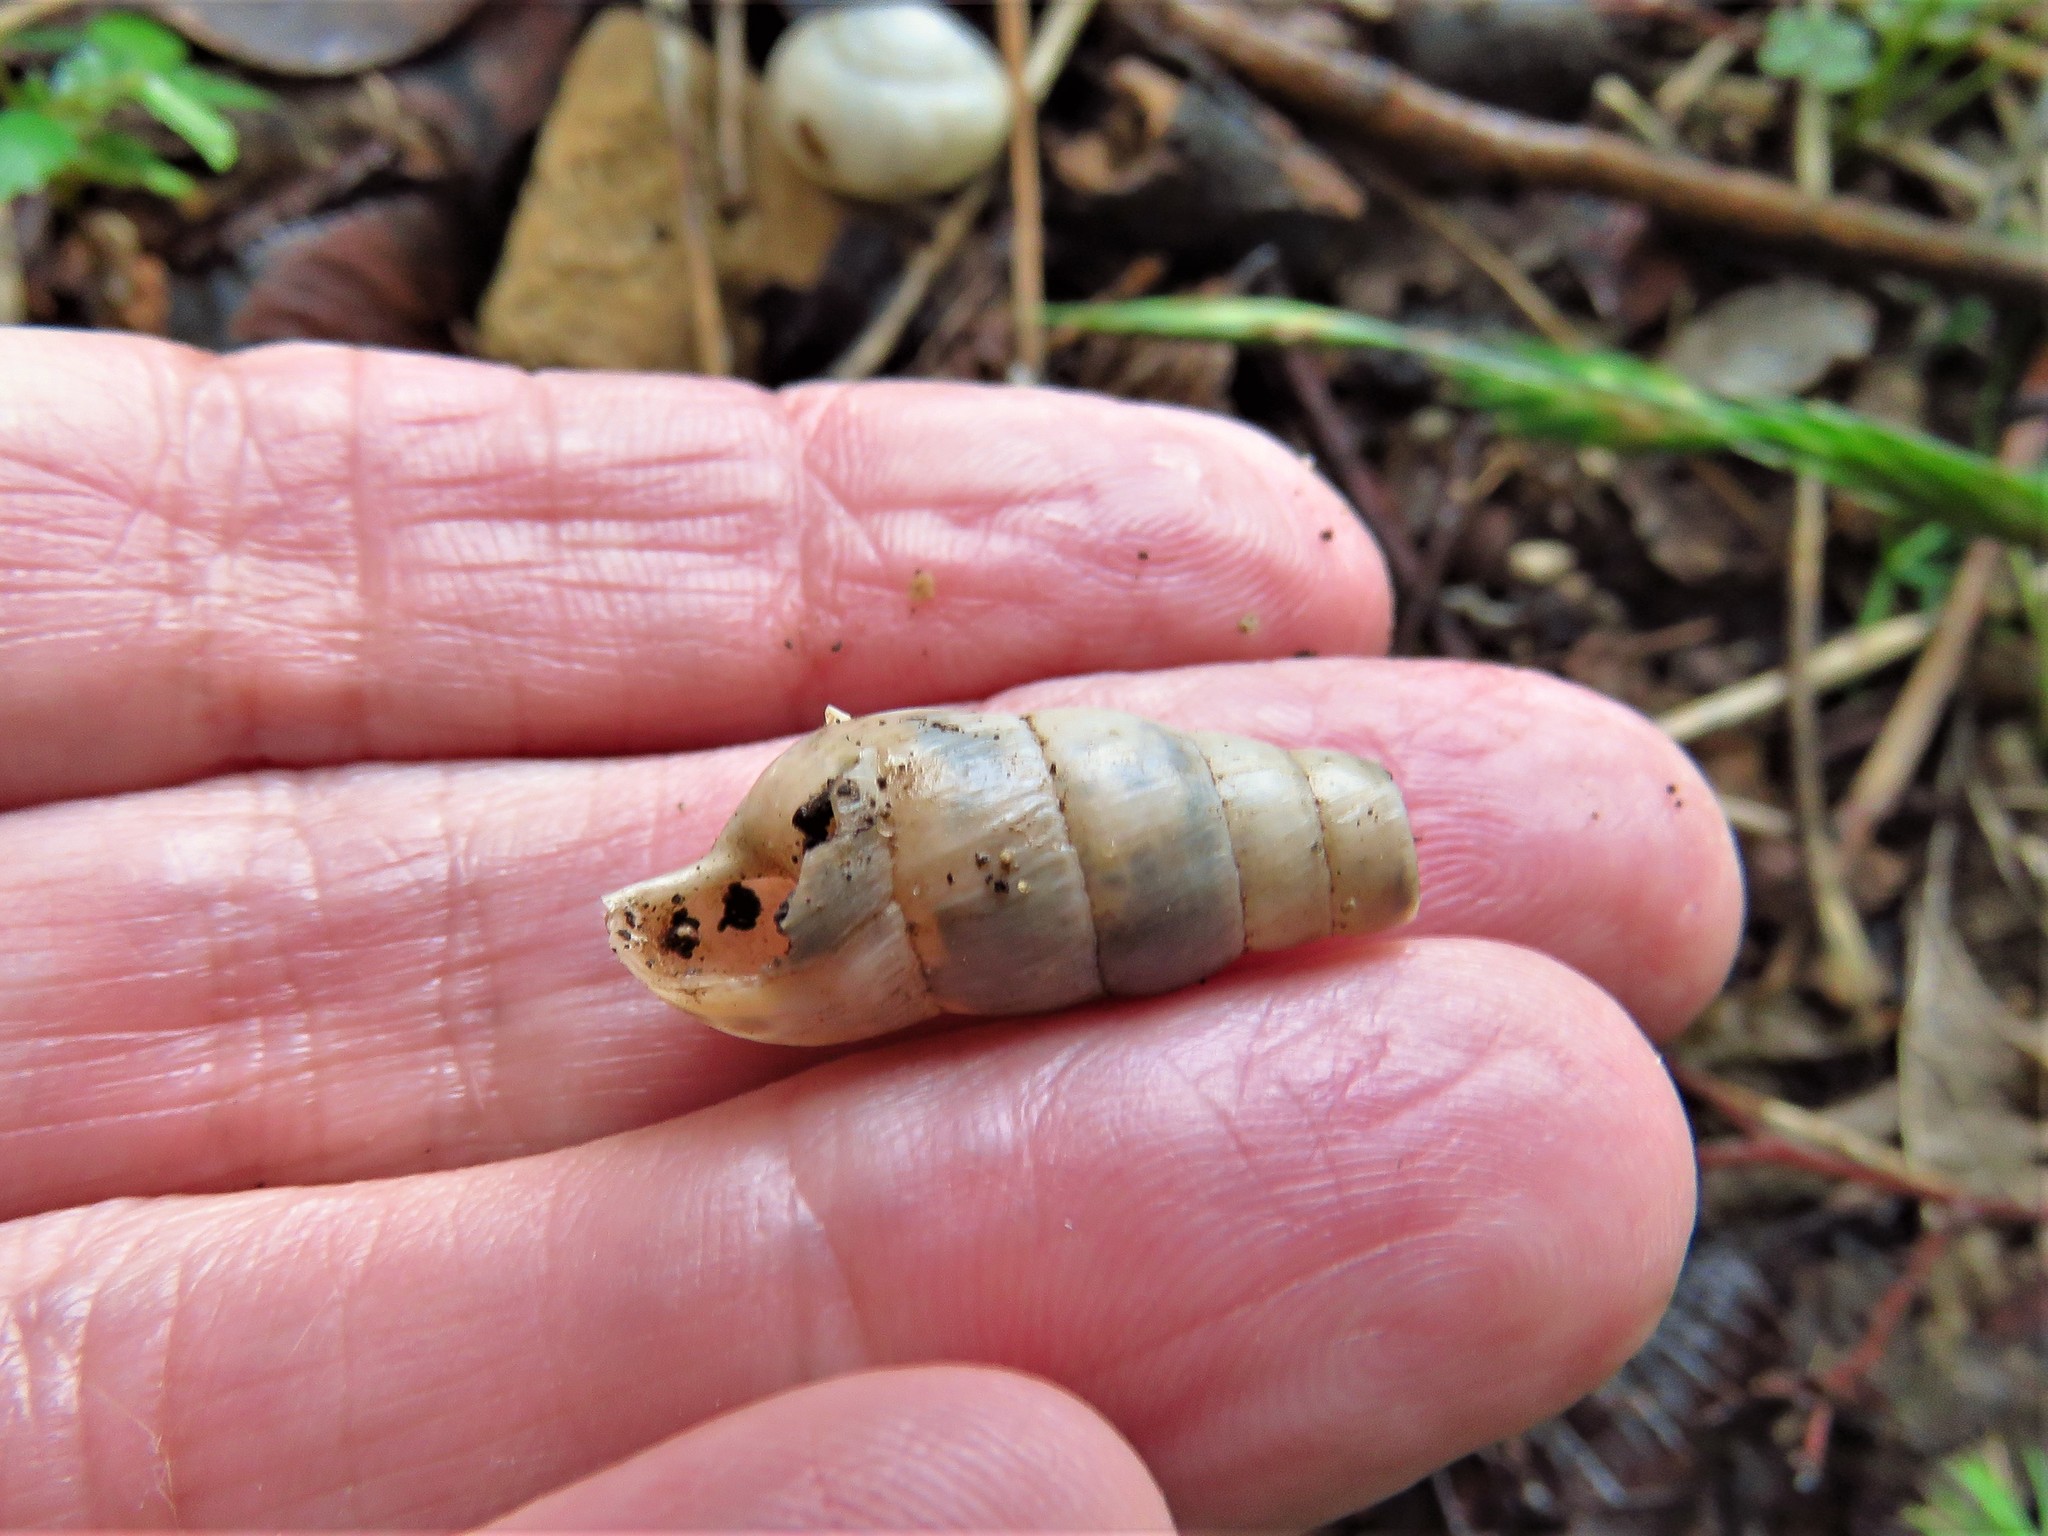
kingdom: Animalia
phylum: Mollusca
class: Gastropoda
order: Stylommatophora
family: Achatinidae
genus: Rumina
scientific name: Rumina decollata
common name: Decollate snail
